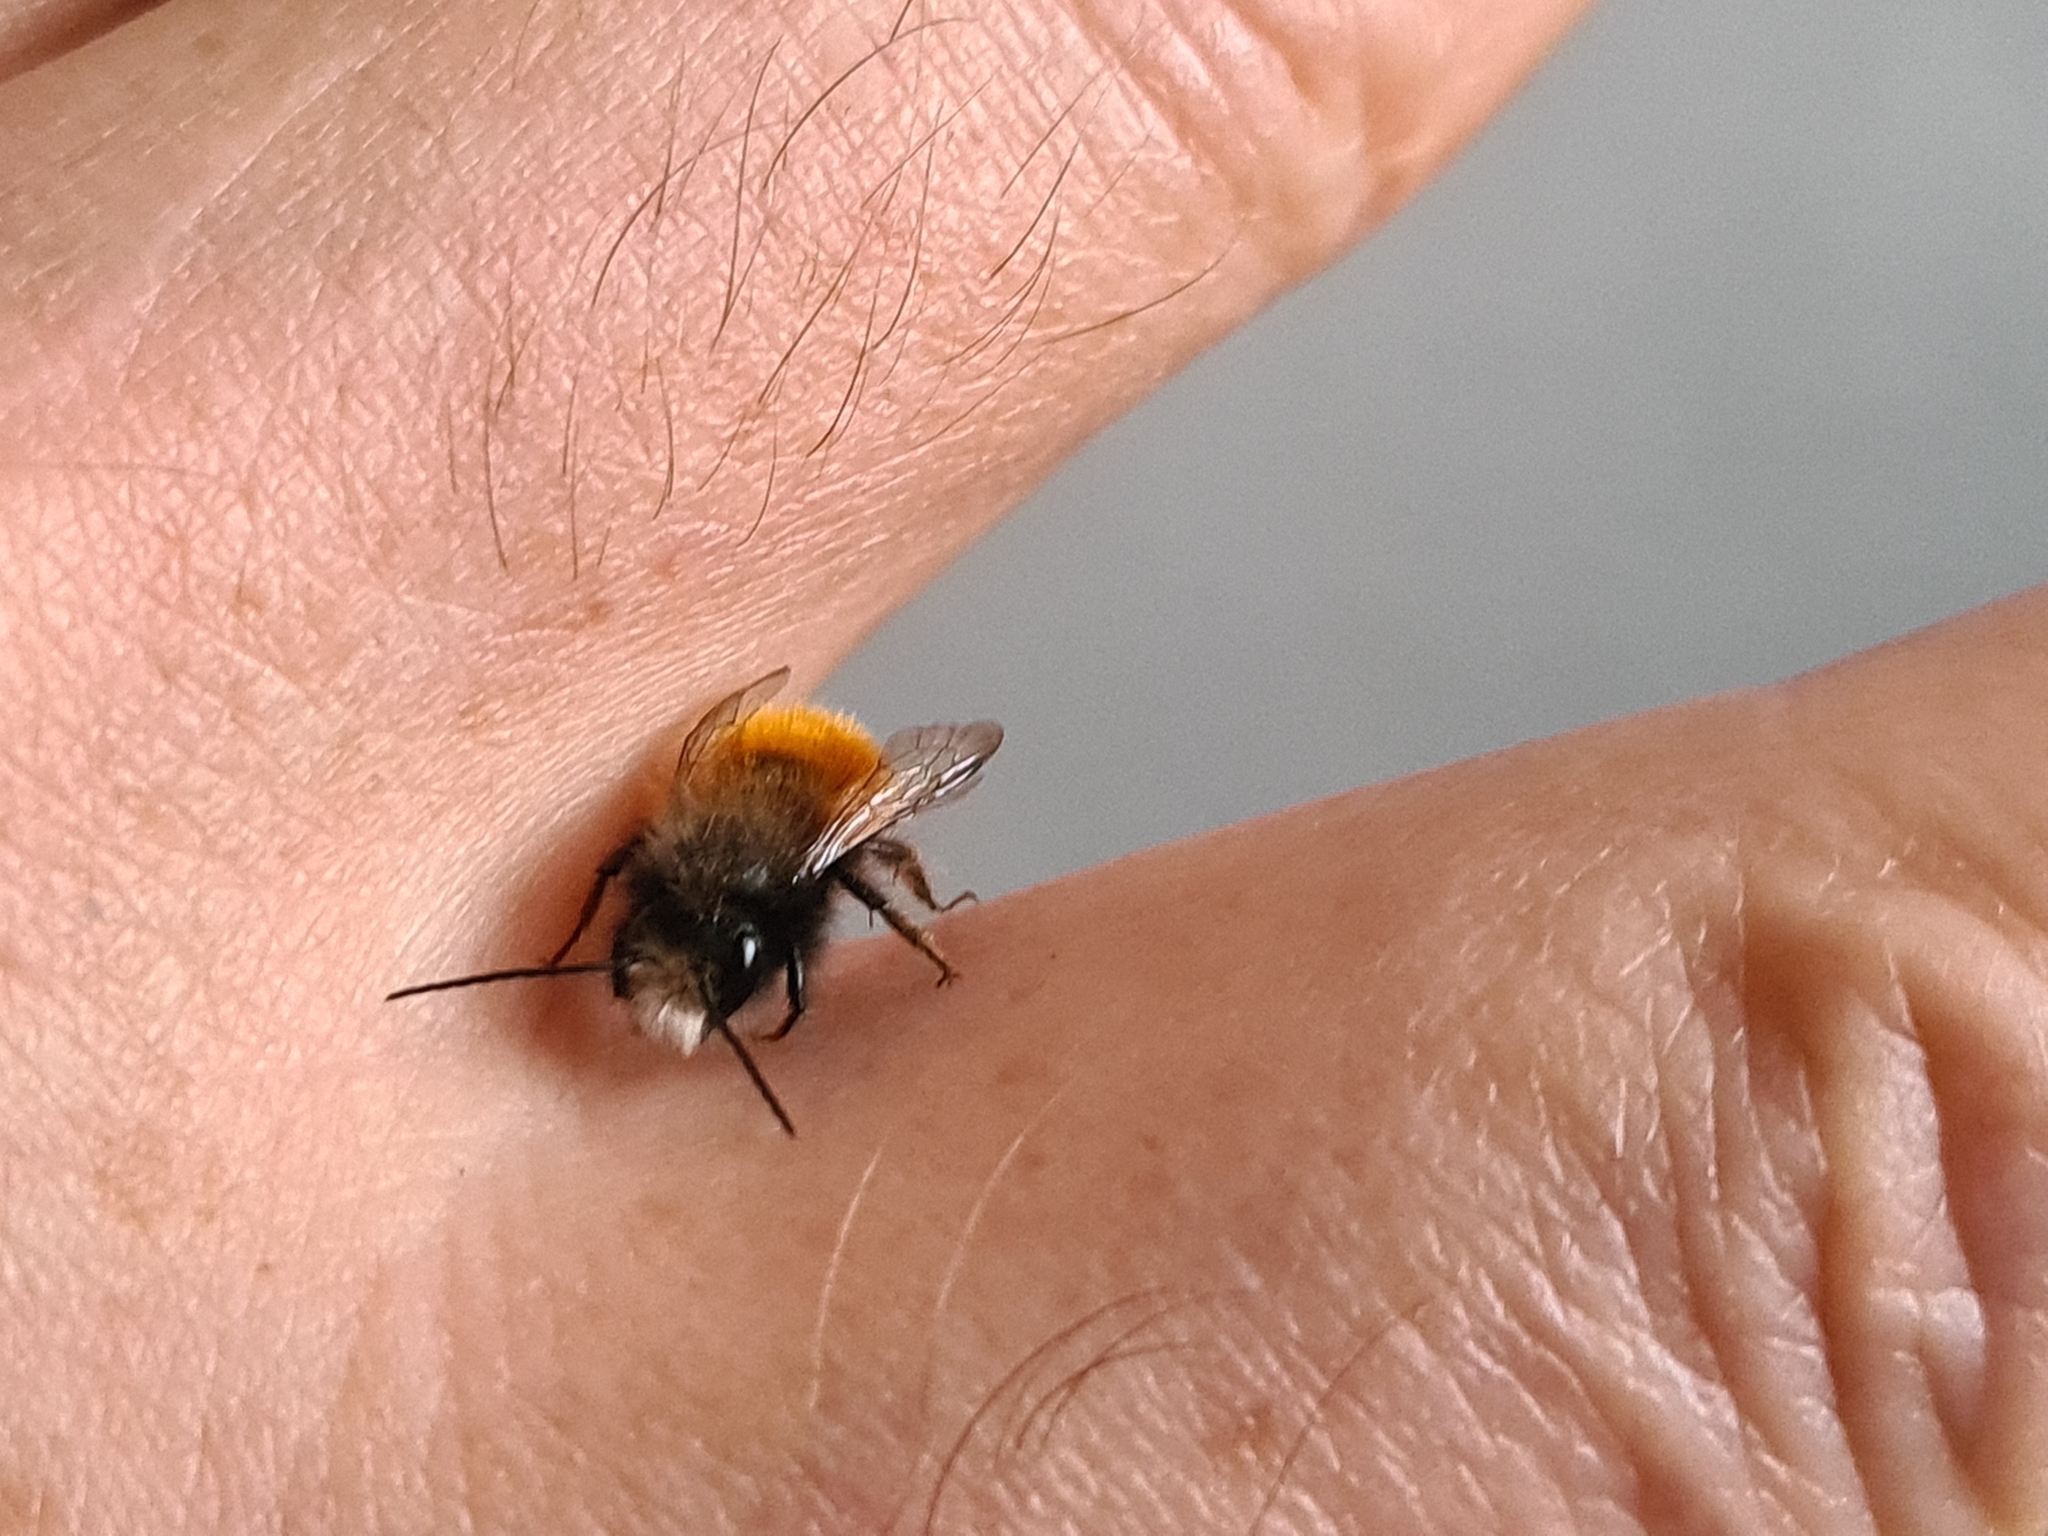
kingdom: Animalia
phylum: Arthropoda
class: Insecta
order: Hymenoptera
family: Megachilidae
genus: Osmia
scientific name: Osmia cornuta
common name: Mason bee
